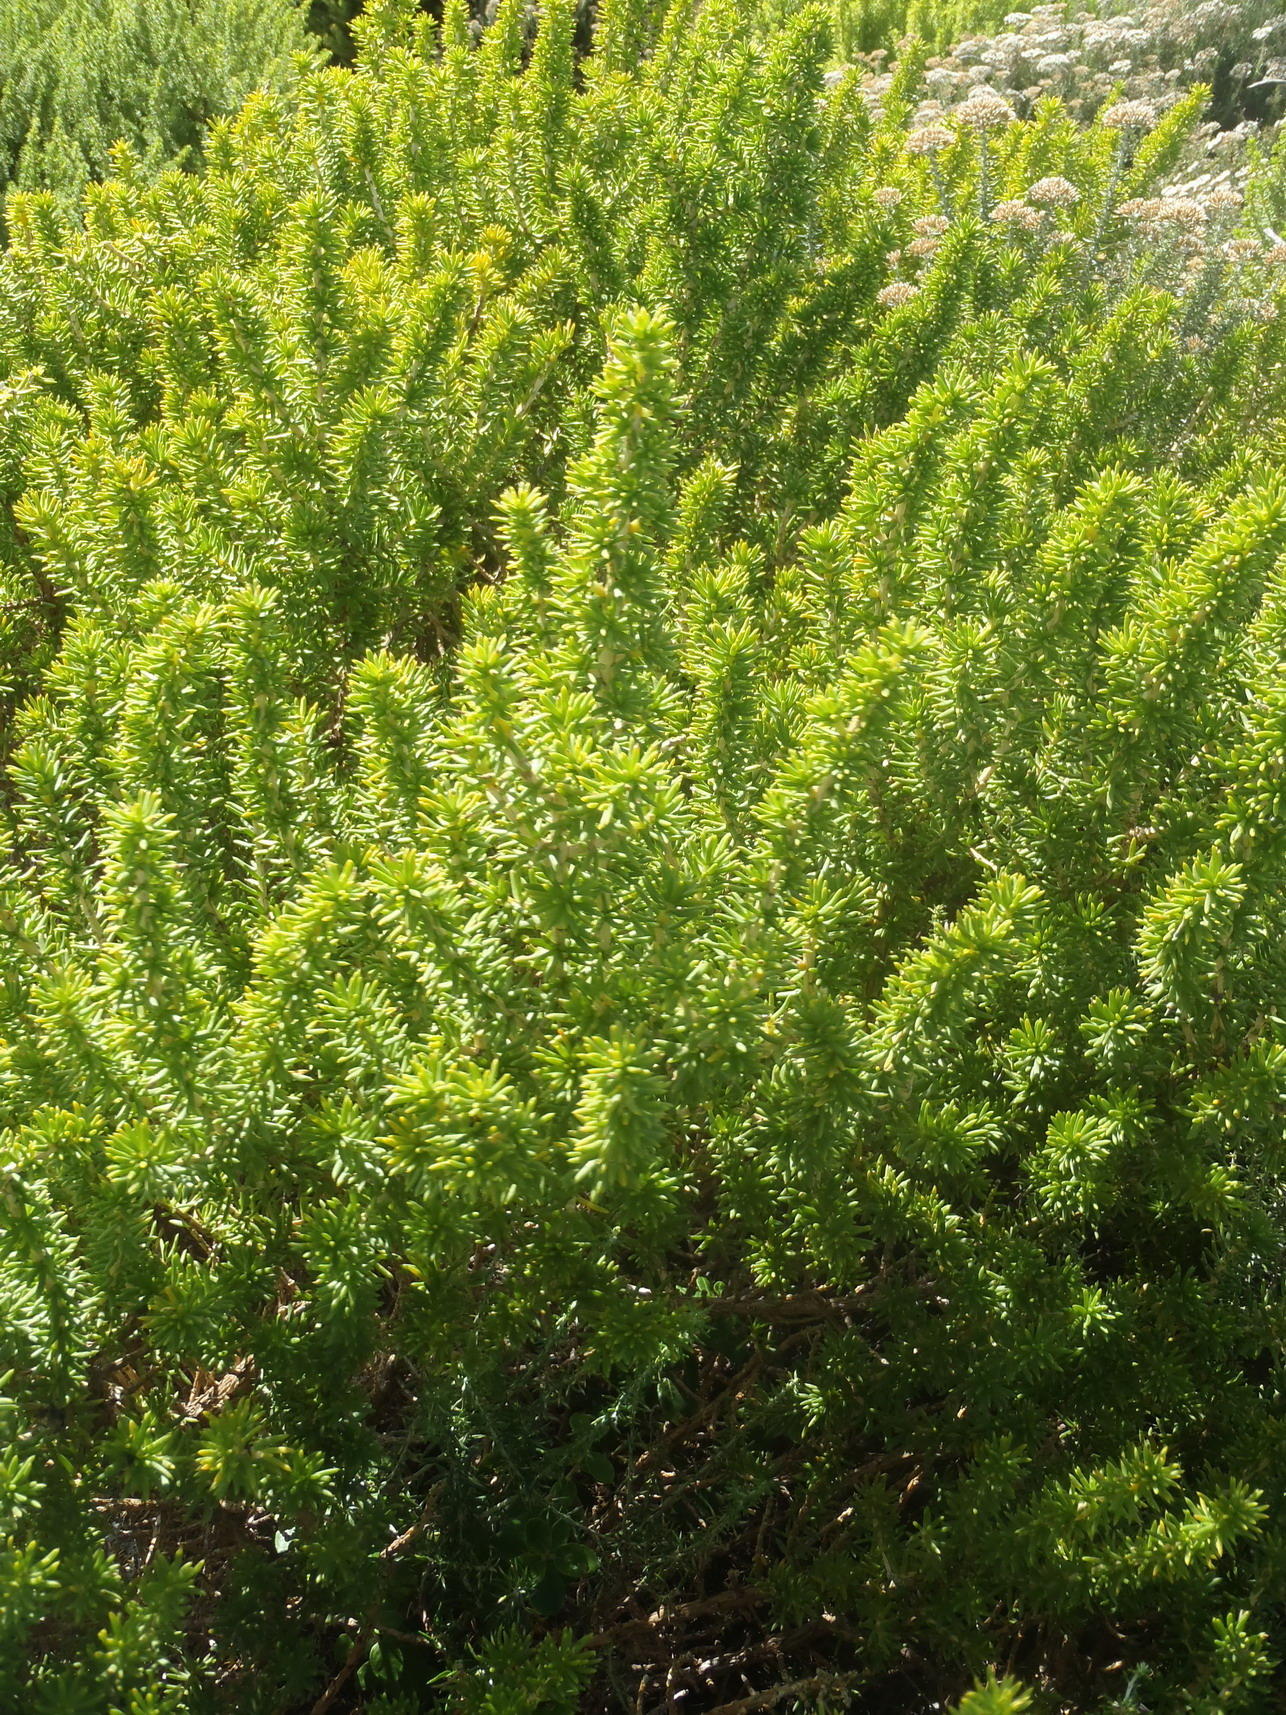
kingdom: Plantae
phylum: Tracheophyta
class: Magnoliopsida
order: Fabales
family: Fabaceae
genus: Aspalathus
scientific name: Aspalathus capensis
